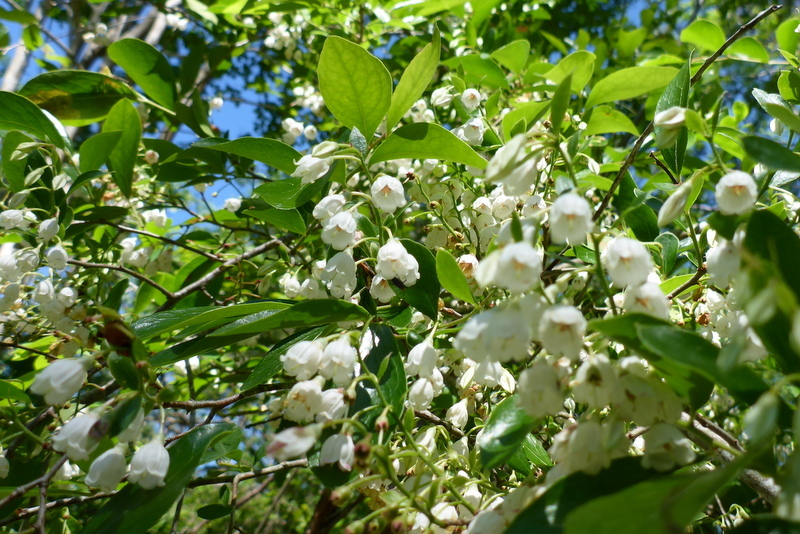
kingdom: Plantae
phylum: Tracheophyta
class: Magnoliopsida
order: Ericales
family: Ericaceae
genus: Vaccinium
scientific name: Vaccinium arboreum
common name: Farkleberry
